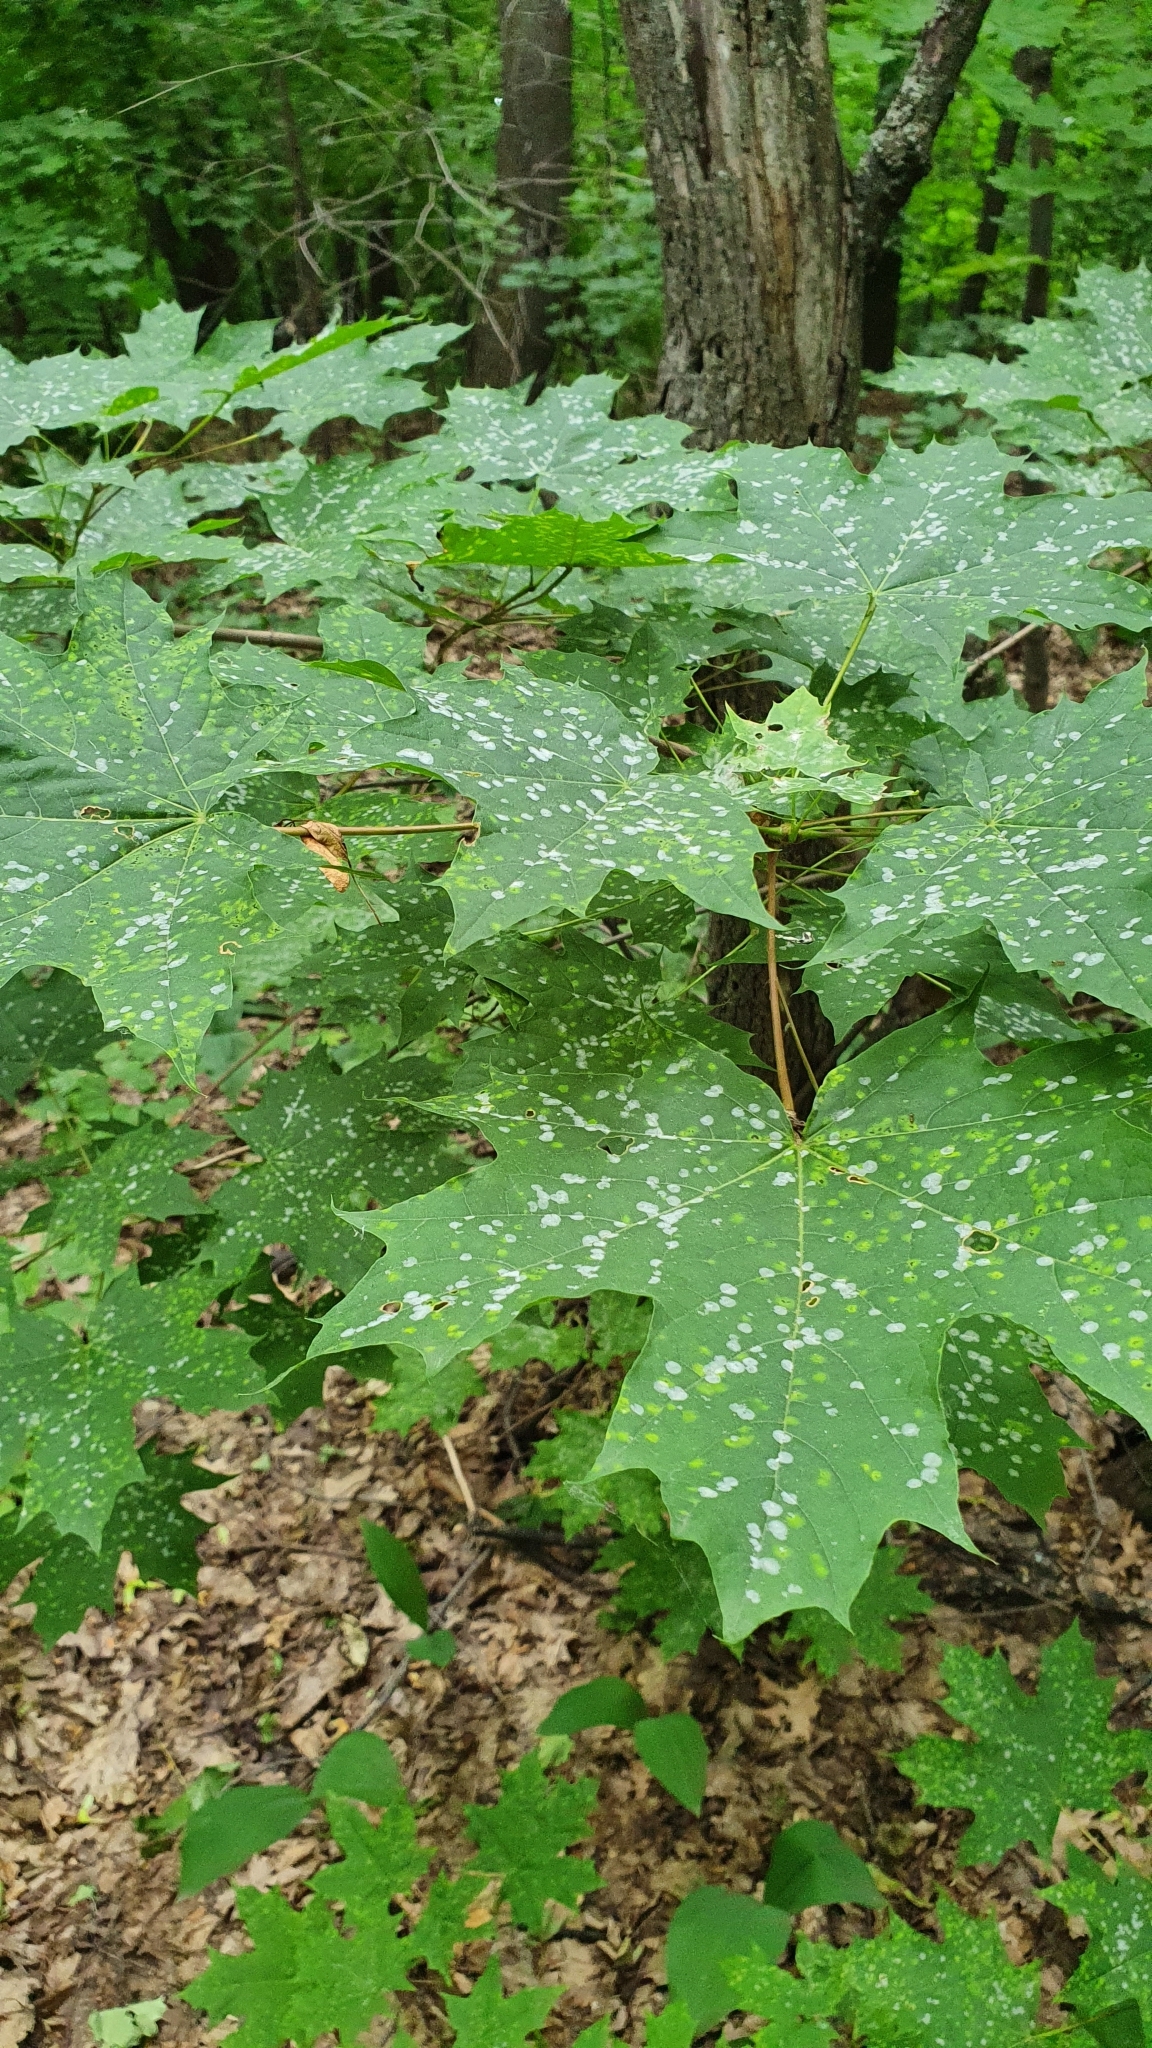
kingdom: Plantae
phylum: Tracheophyta
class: Magnoliopsida
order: Sapindales
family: Sapindaceae
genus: Acer
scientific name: Acer platanoides
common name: Norway maple
